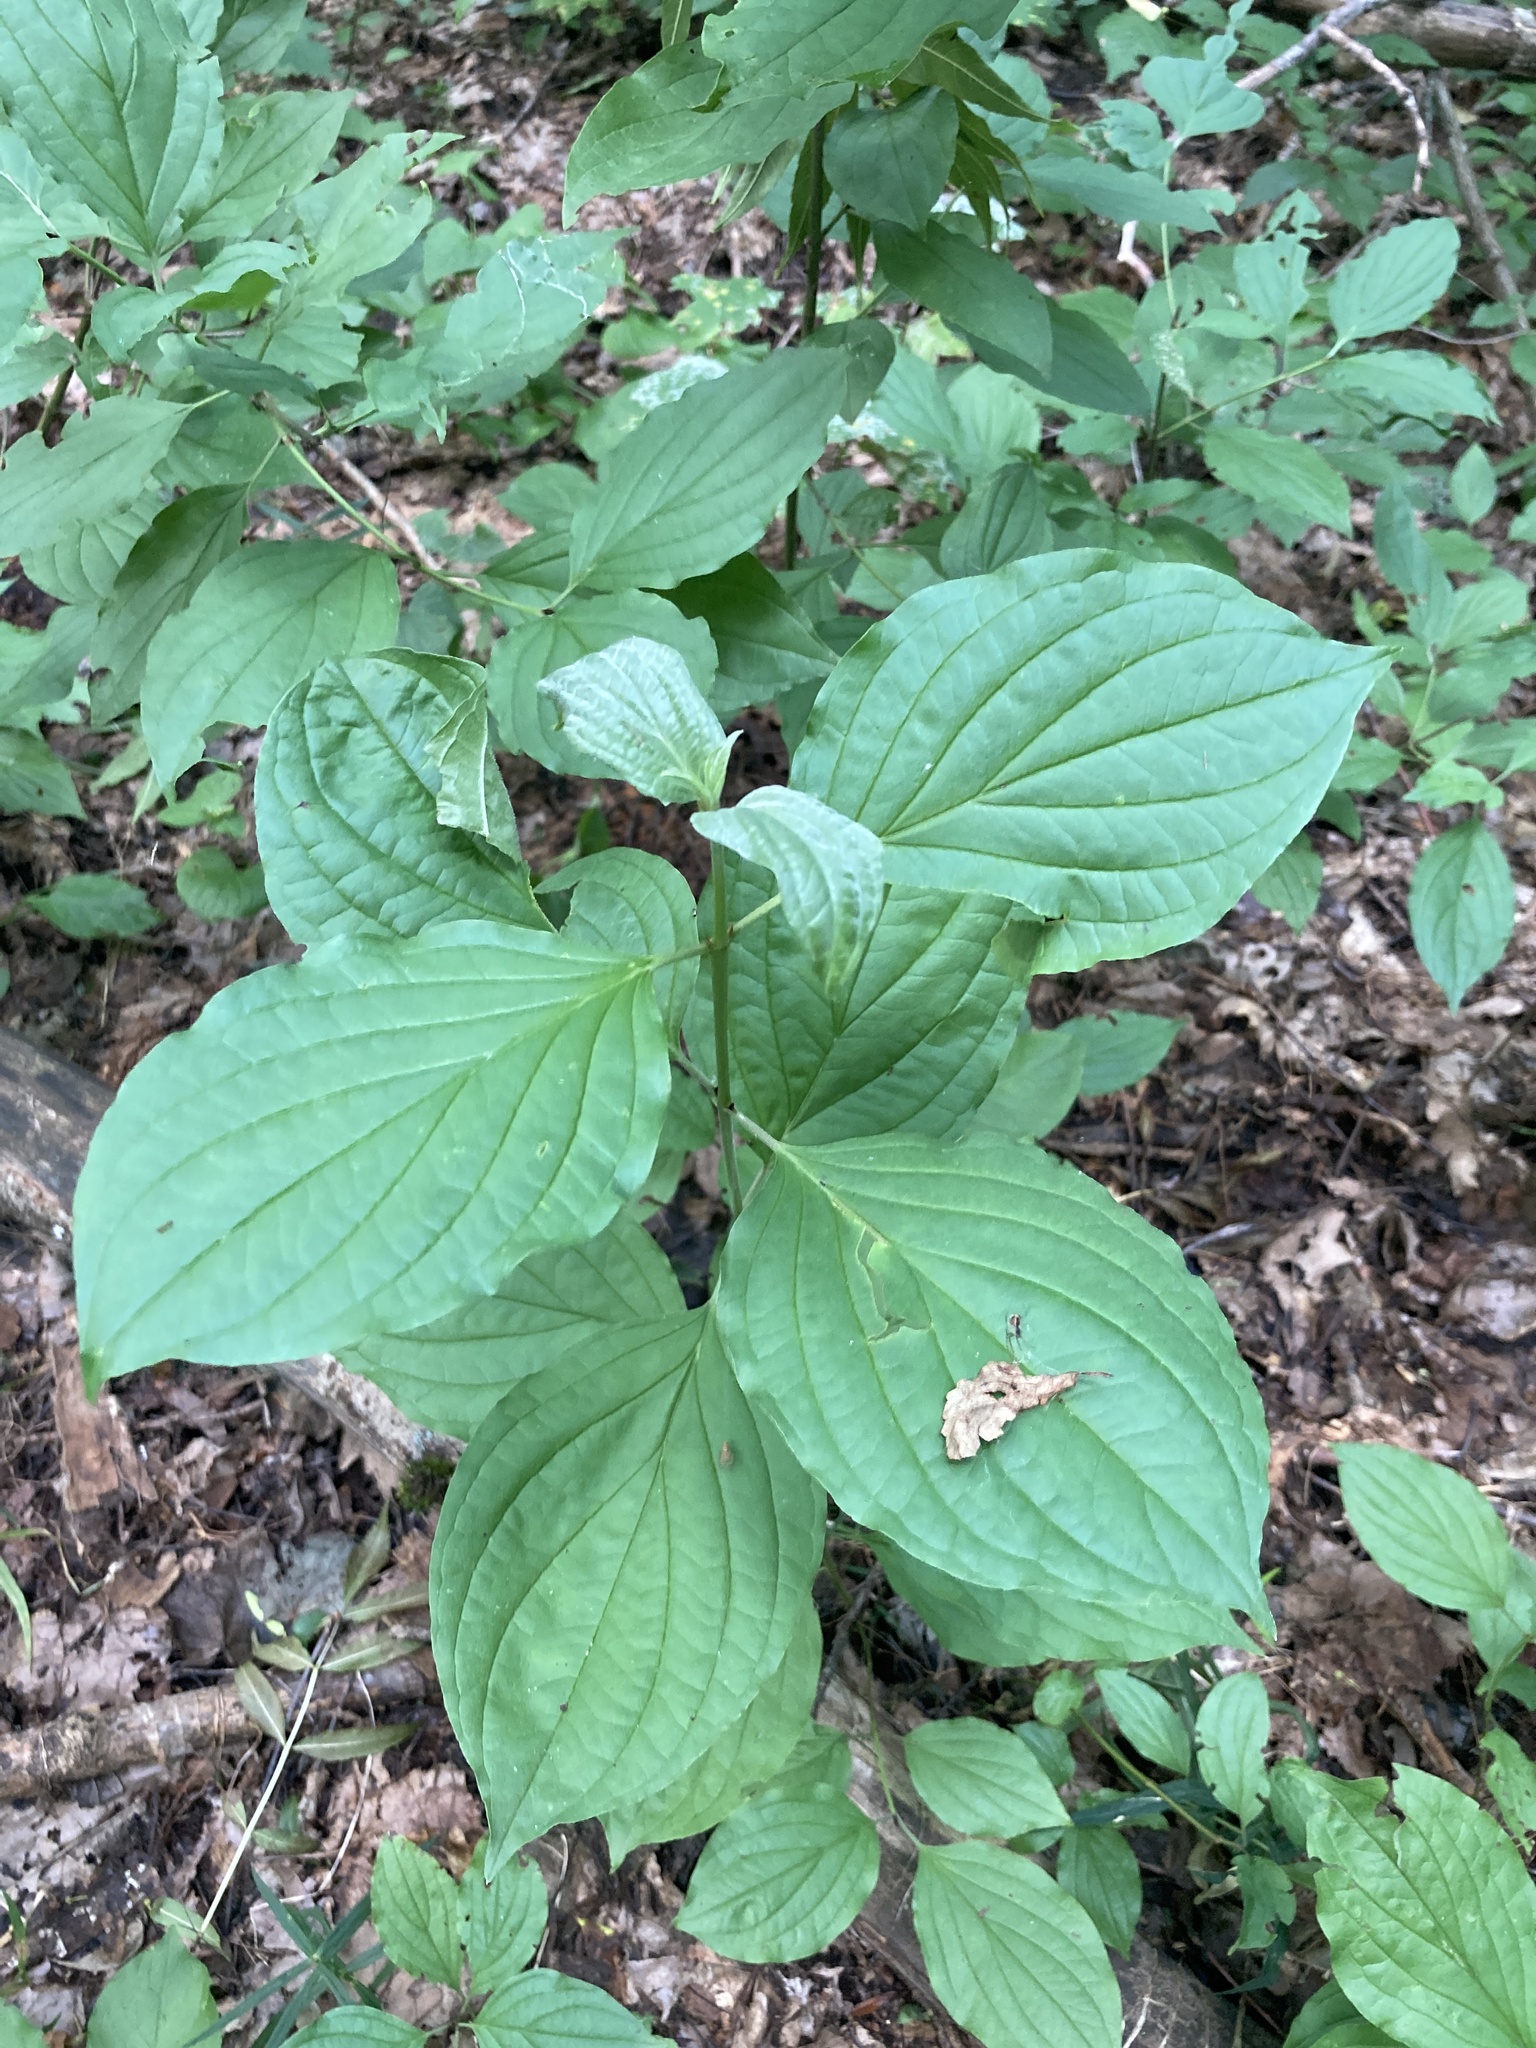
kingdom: Plantae
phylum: Tracheophyta
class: Magnoliopsida
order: Cornales
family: Cornaceae
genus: Cornus
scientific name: Cornus sanguinea
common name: Dogwood
